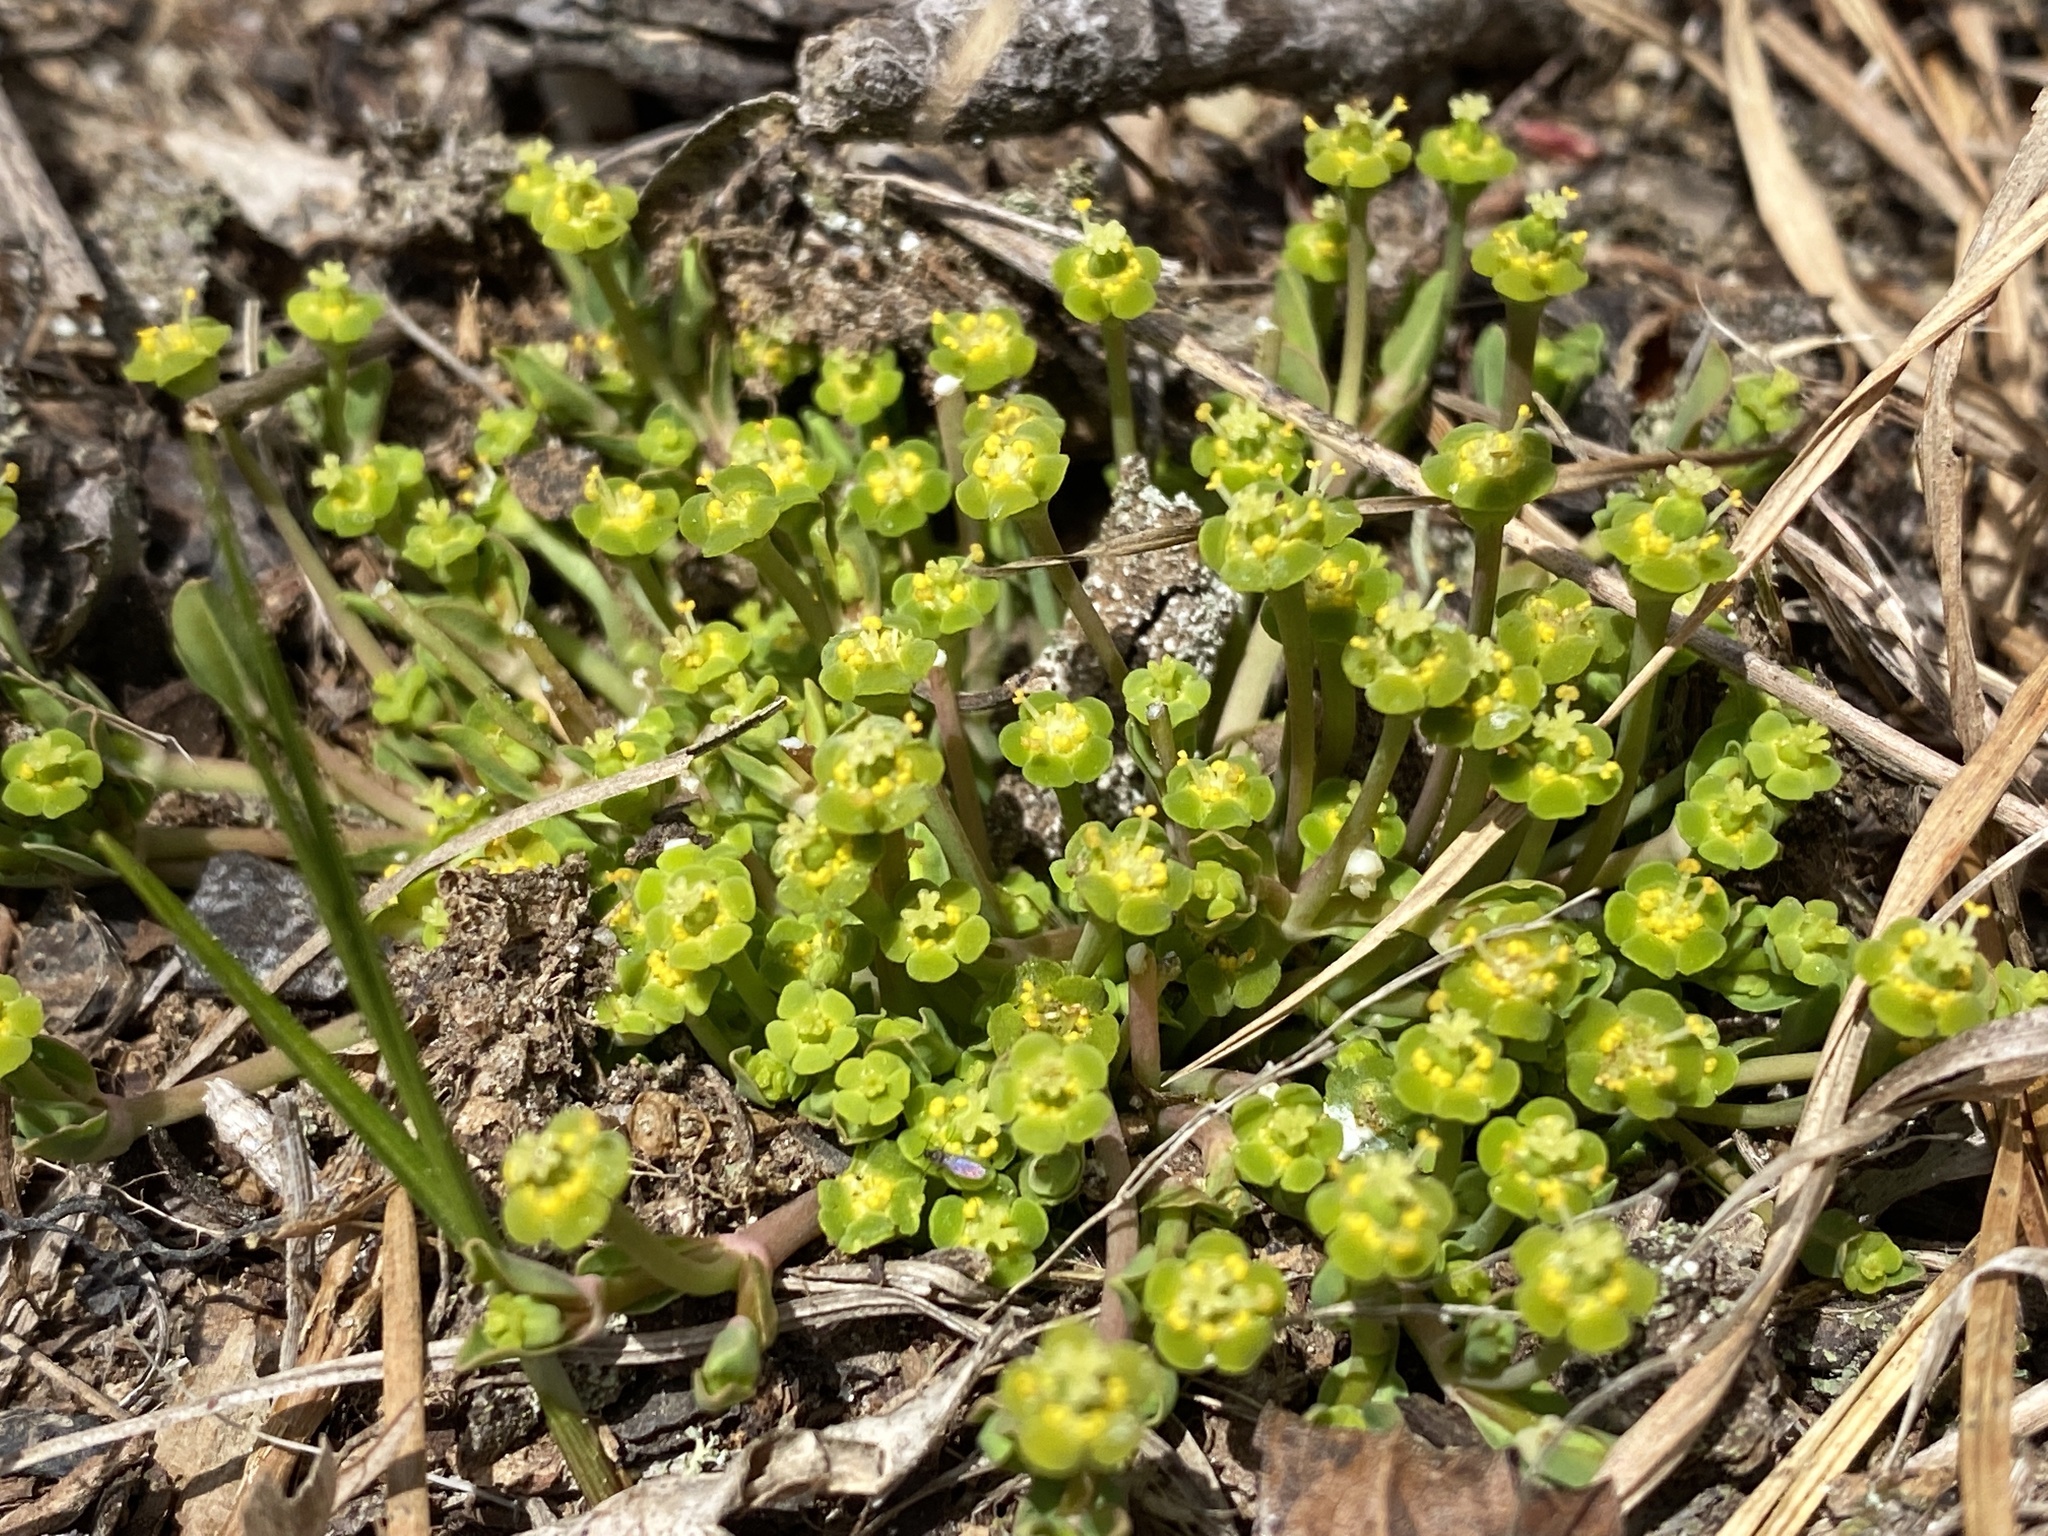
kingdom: Plantae
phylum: Tracheophyta
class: Magnoliopsida
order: Malpighiales
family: Euphorbiaceae
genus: Euphorbia
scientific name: Euphorbia ipecacuanhae
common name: Carolina ipecac
